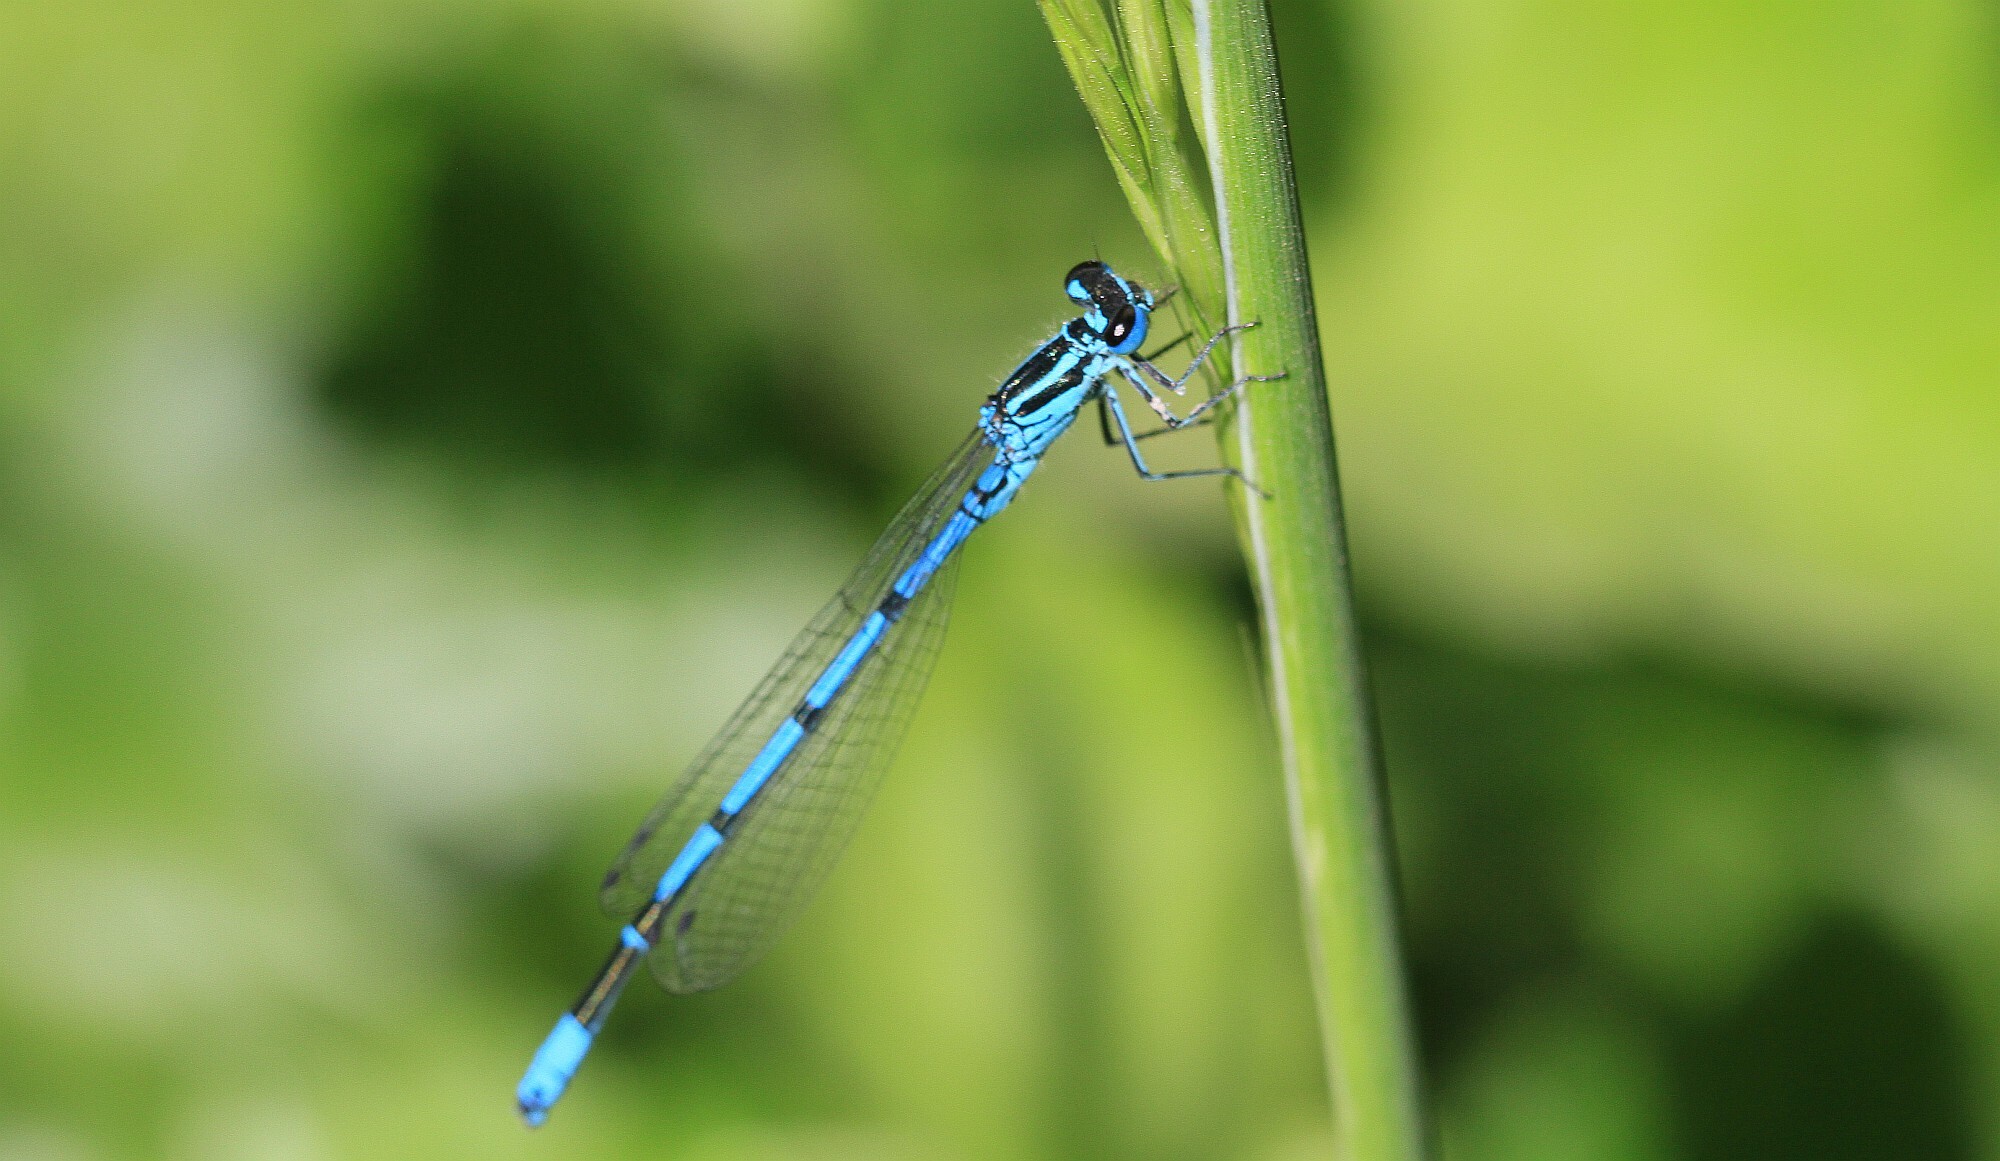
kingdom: Animalia
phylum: Arthropoda
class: Insecta
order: Odonata
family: Coenagrionidae
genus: Coenagrion
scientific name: Coenagrion puella
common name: Azure damselfly
